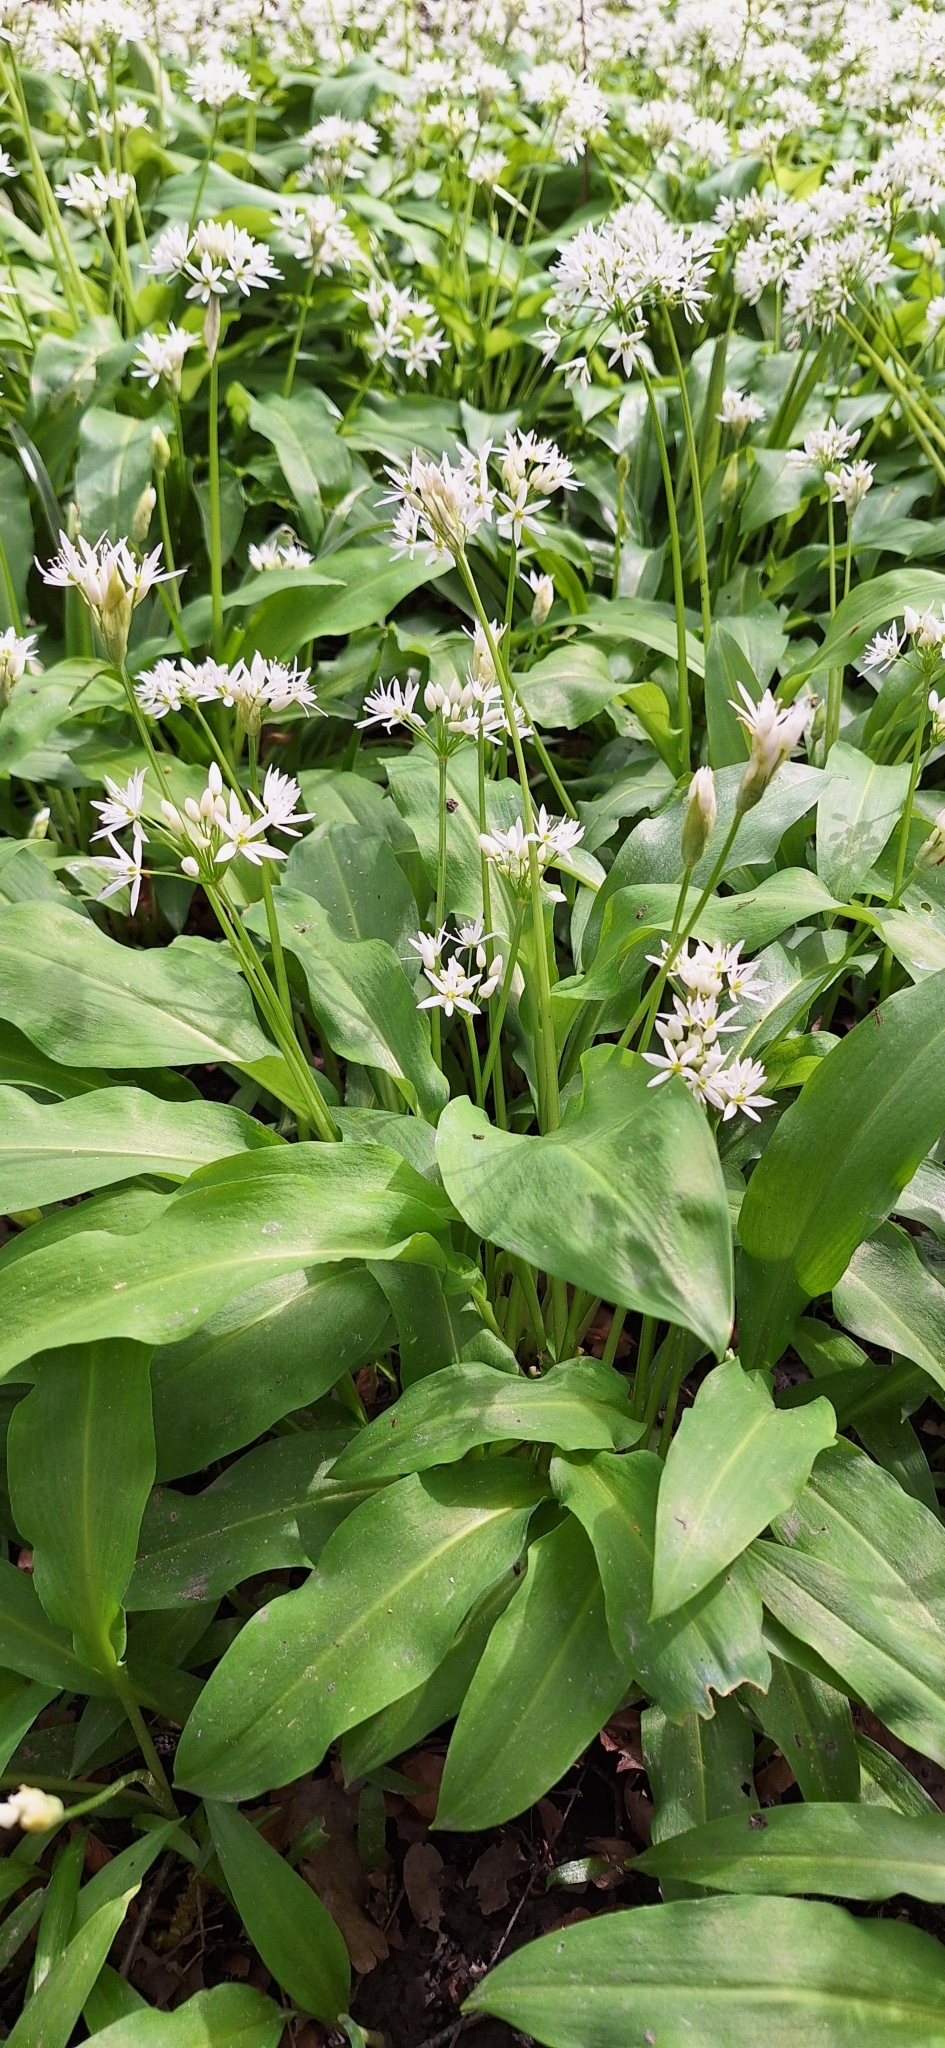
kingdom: Plantae
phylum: Tracheophyta
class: Liliopsida
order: Asparagales
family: Amaryllidaceae
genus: Allium
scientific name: Allium ursinum
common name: Ramsons
